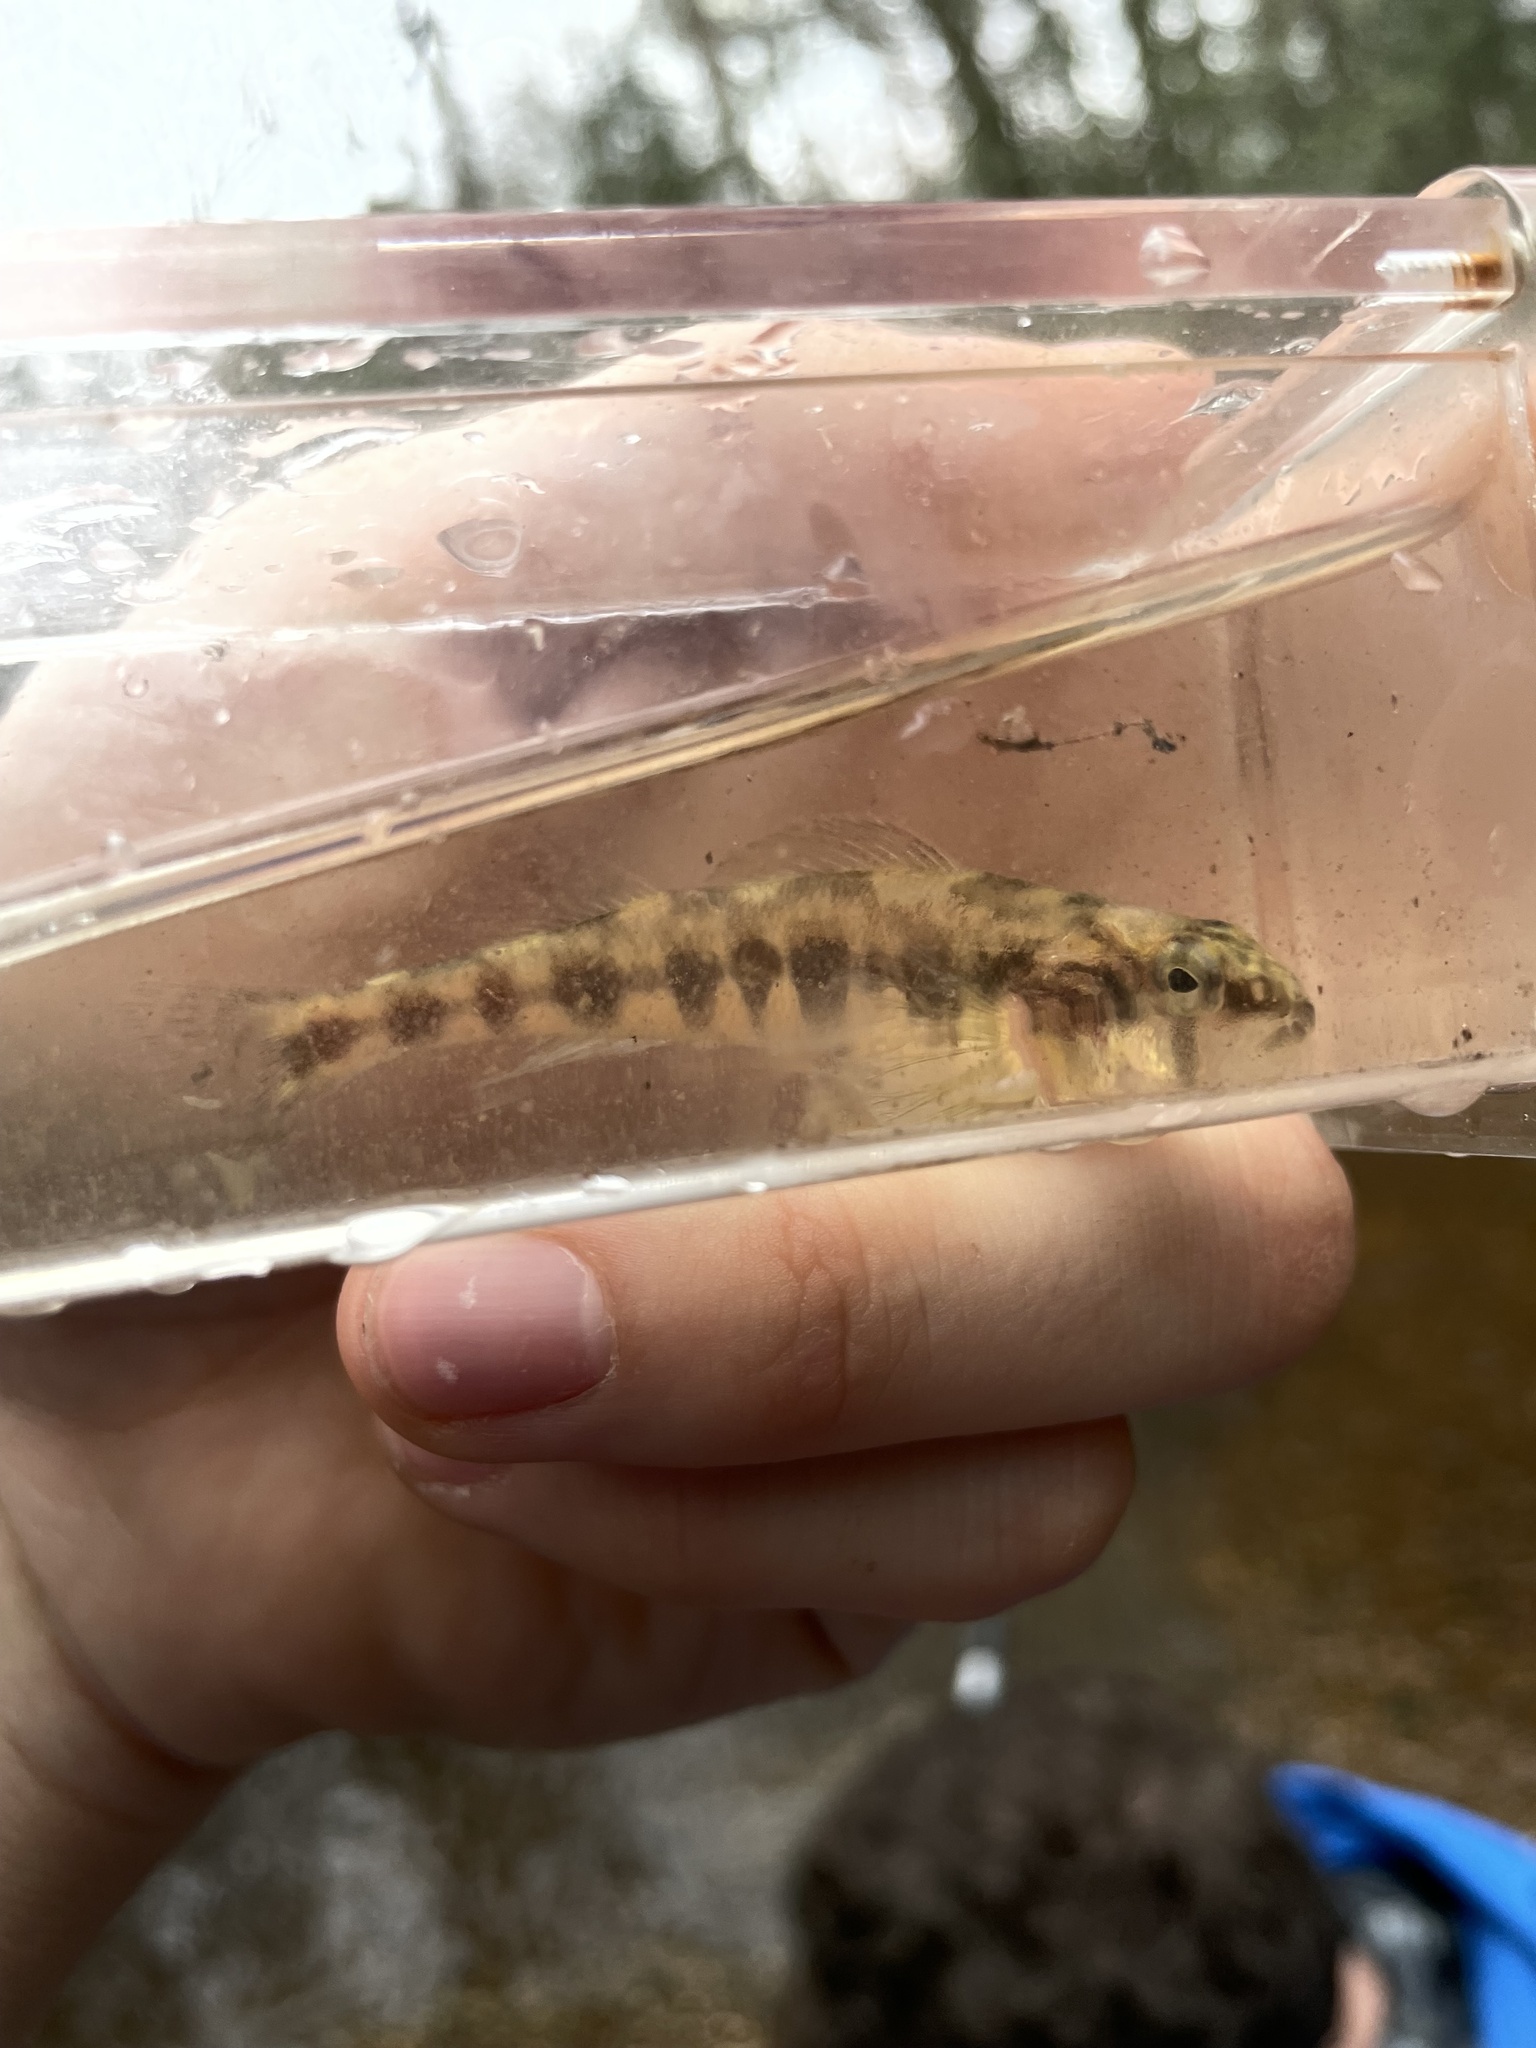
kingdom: Animalia
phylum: Chordata
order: Perciformes
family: Percidae
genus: Percina
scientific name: Percina crassa
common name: Piedmont darter
